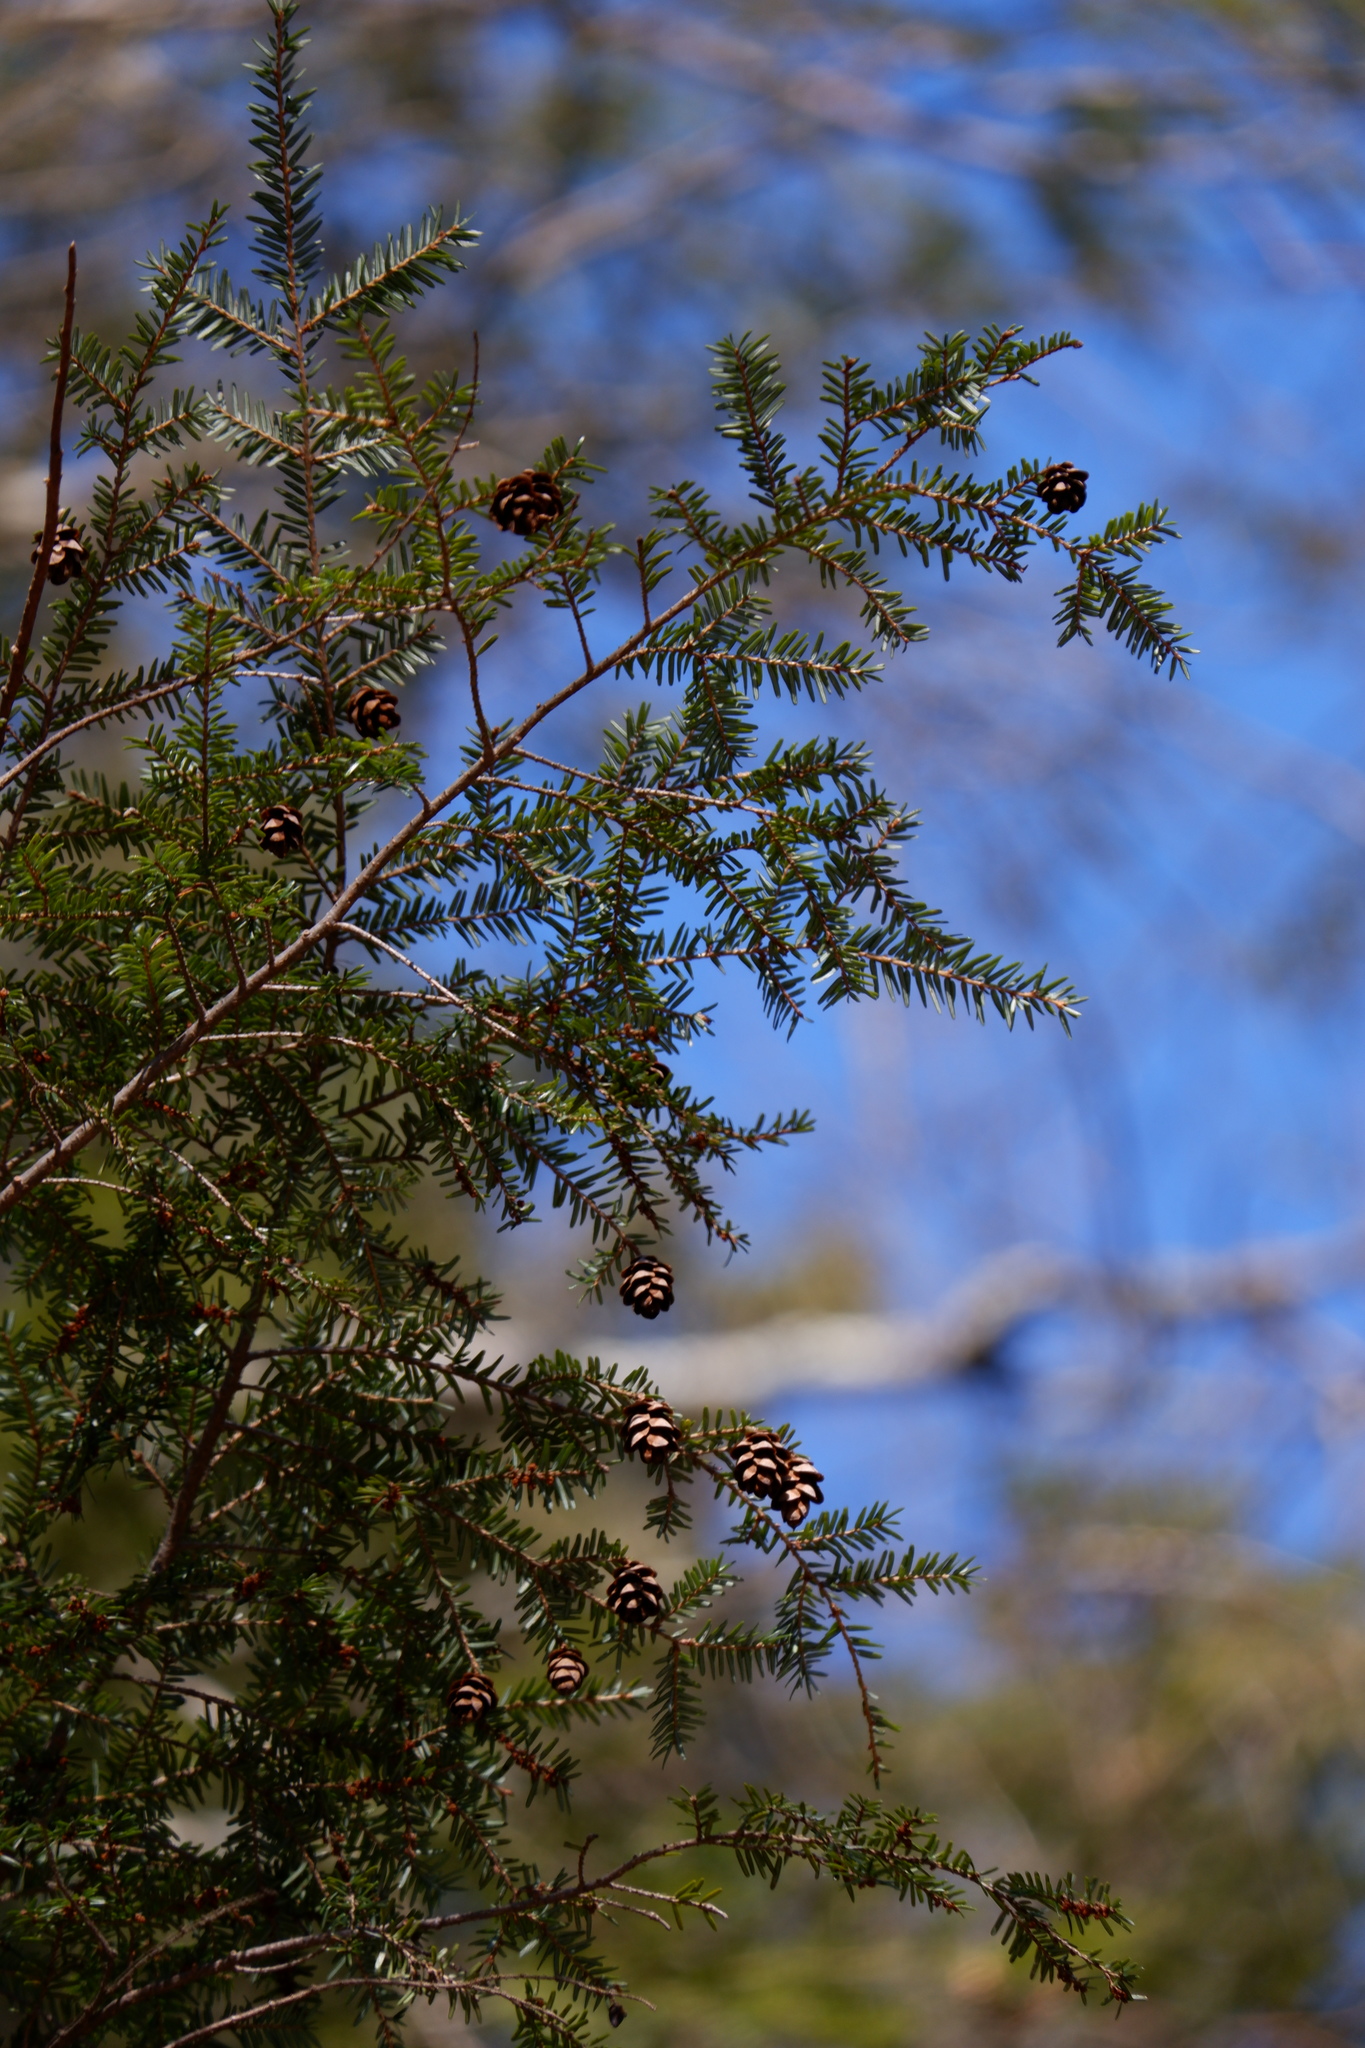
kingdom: Plantae
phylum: Tracheophyta
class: Pinopsida
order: Pinales
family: Pinaceae
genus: Tsuga
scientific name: Tsuga canadensis
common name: Eastern hemlock
